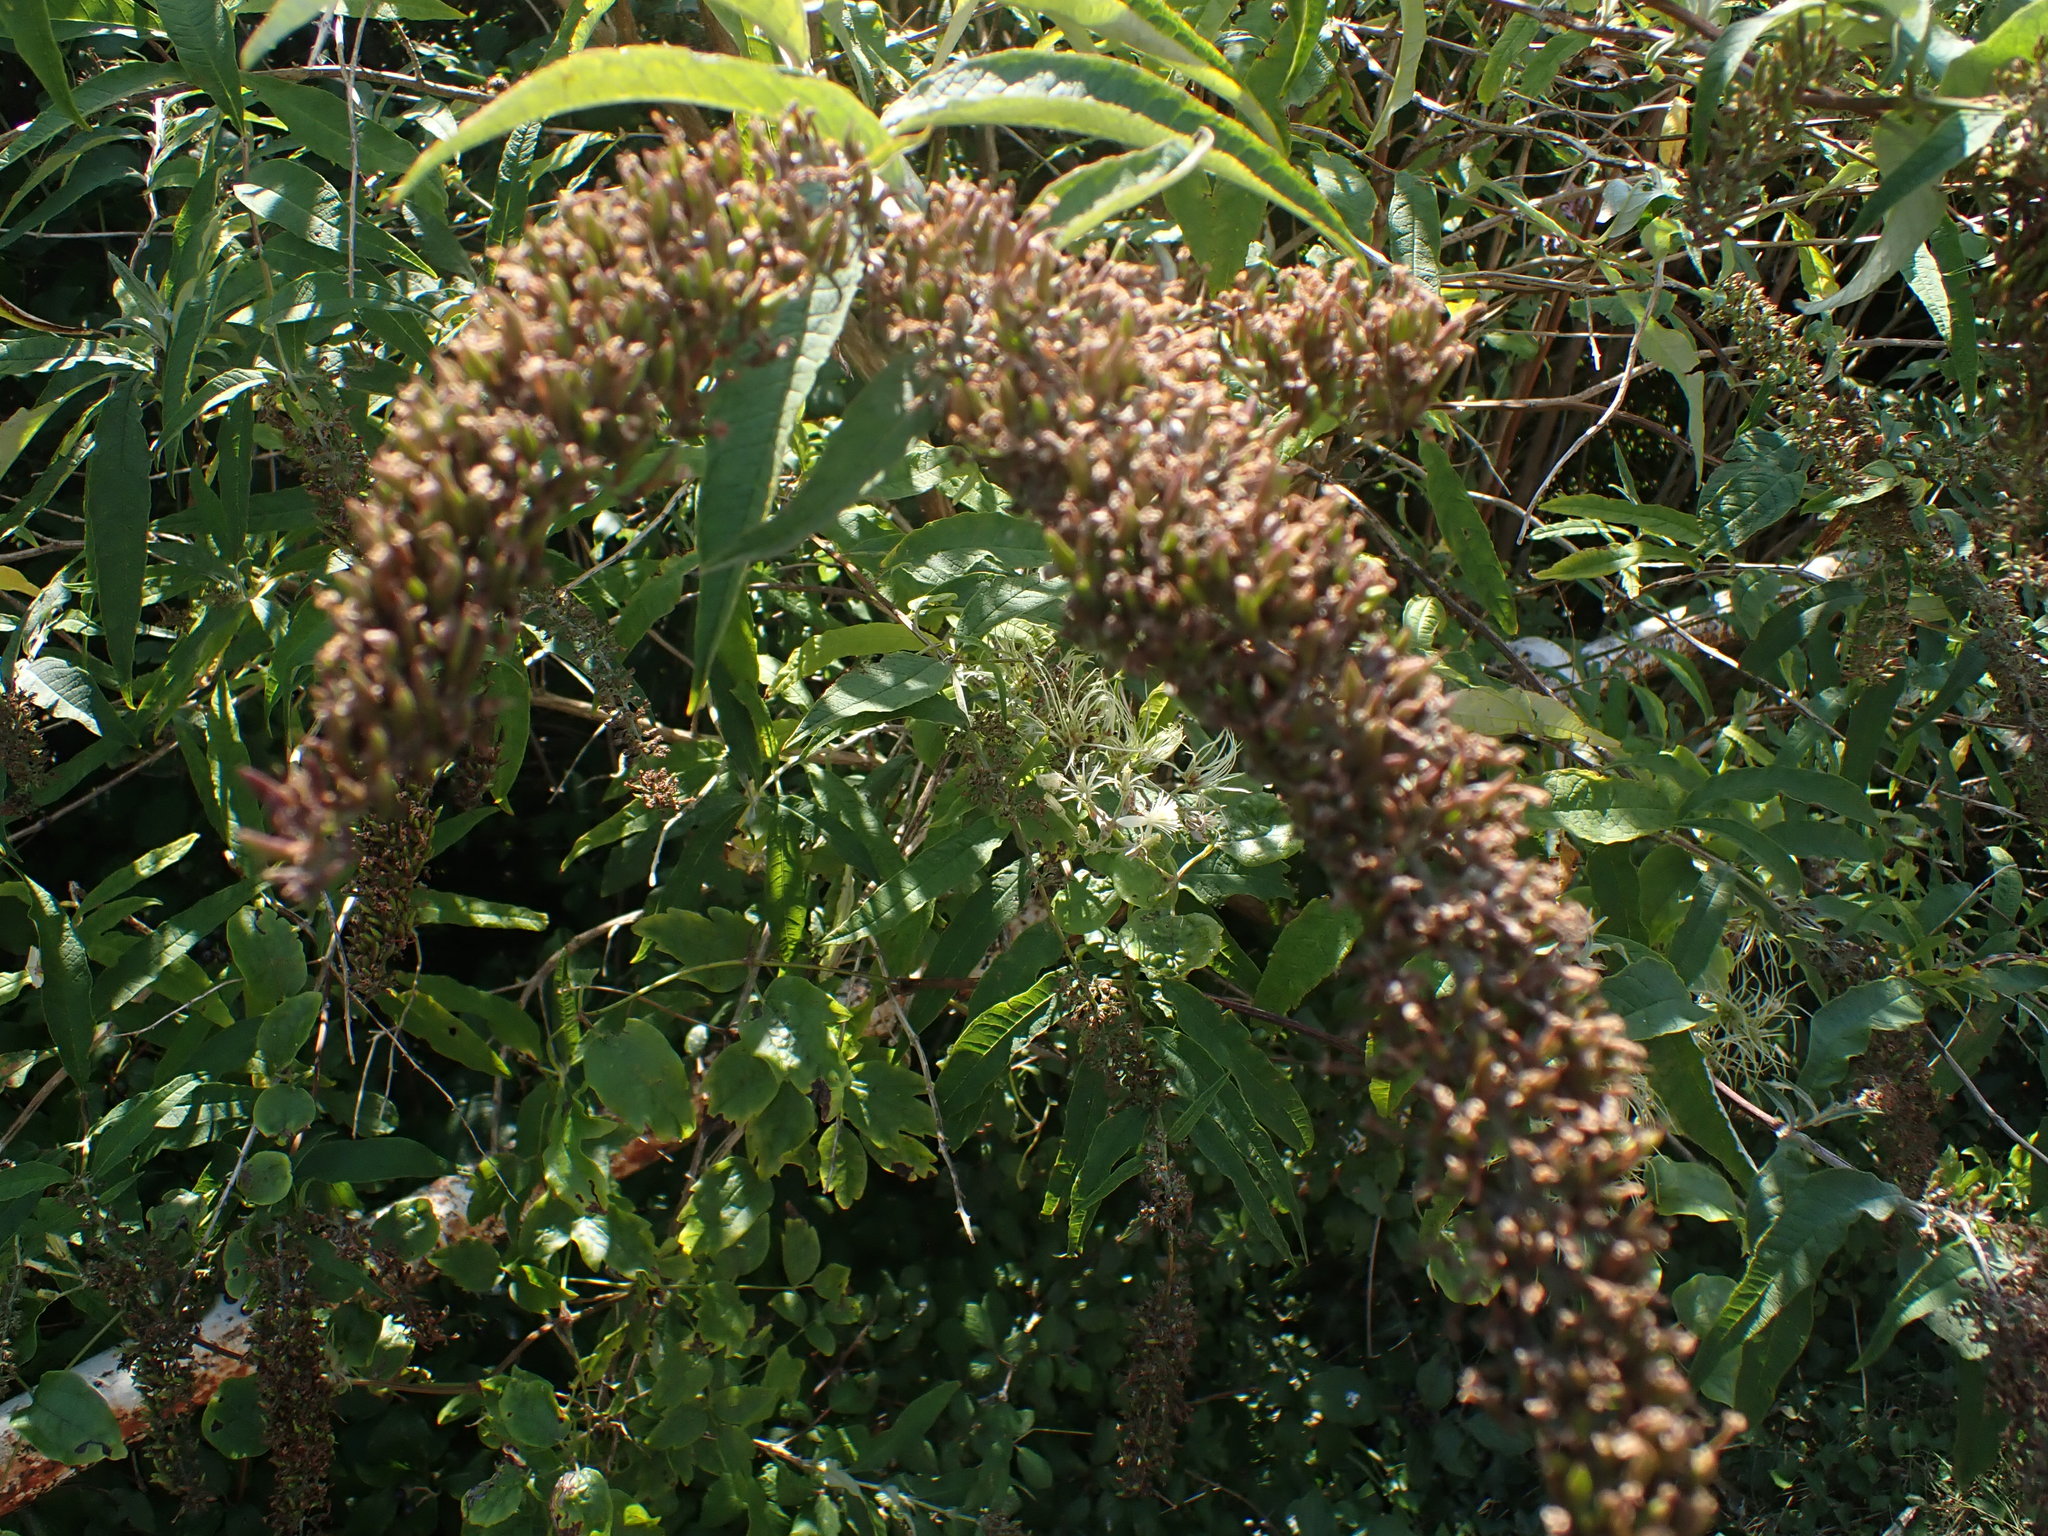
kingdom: Plantae
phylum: Tracheophyta
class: Magnoliopsida
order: Lamiales
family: Scrophulariaceae
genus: Buddleja
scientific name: Buddleja davidii
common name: Butterfly-bush
